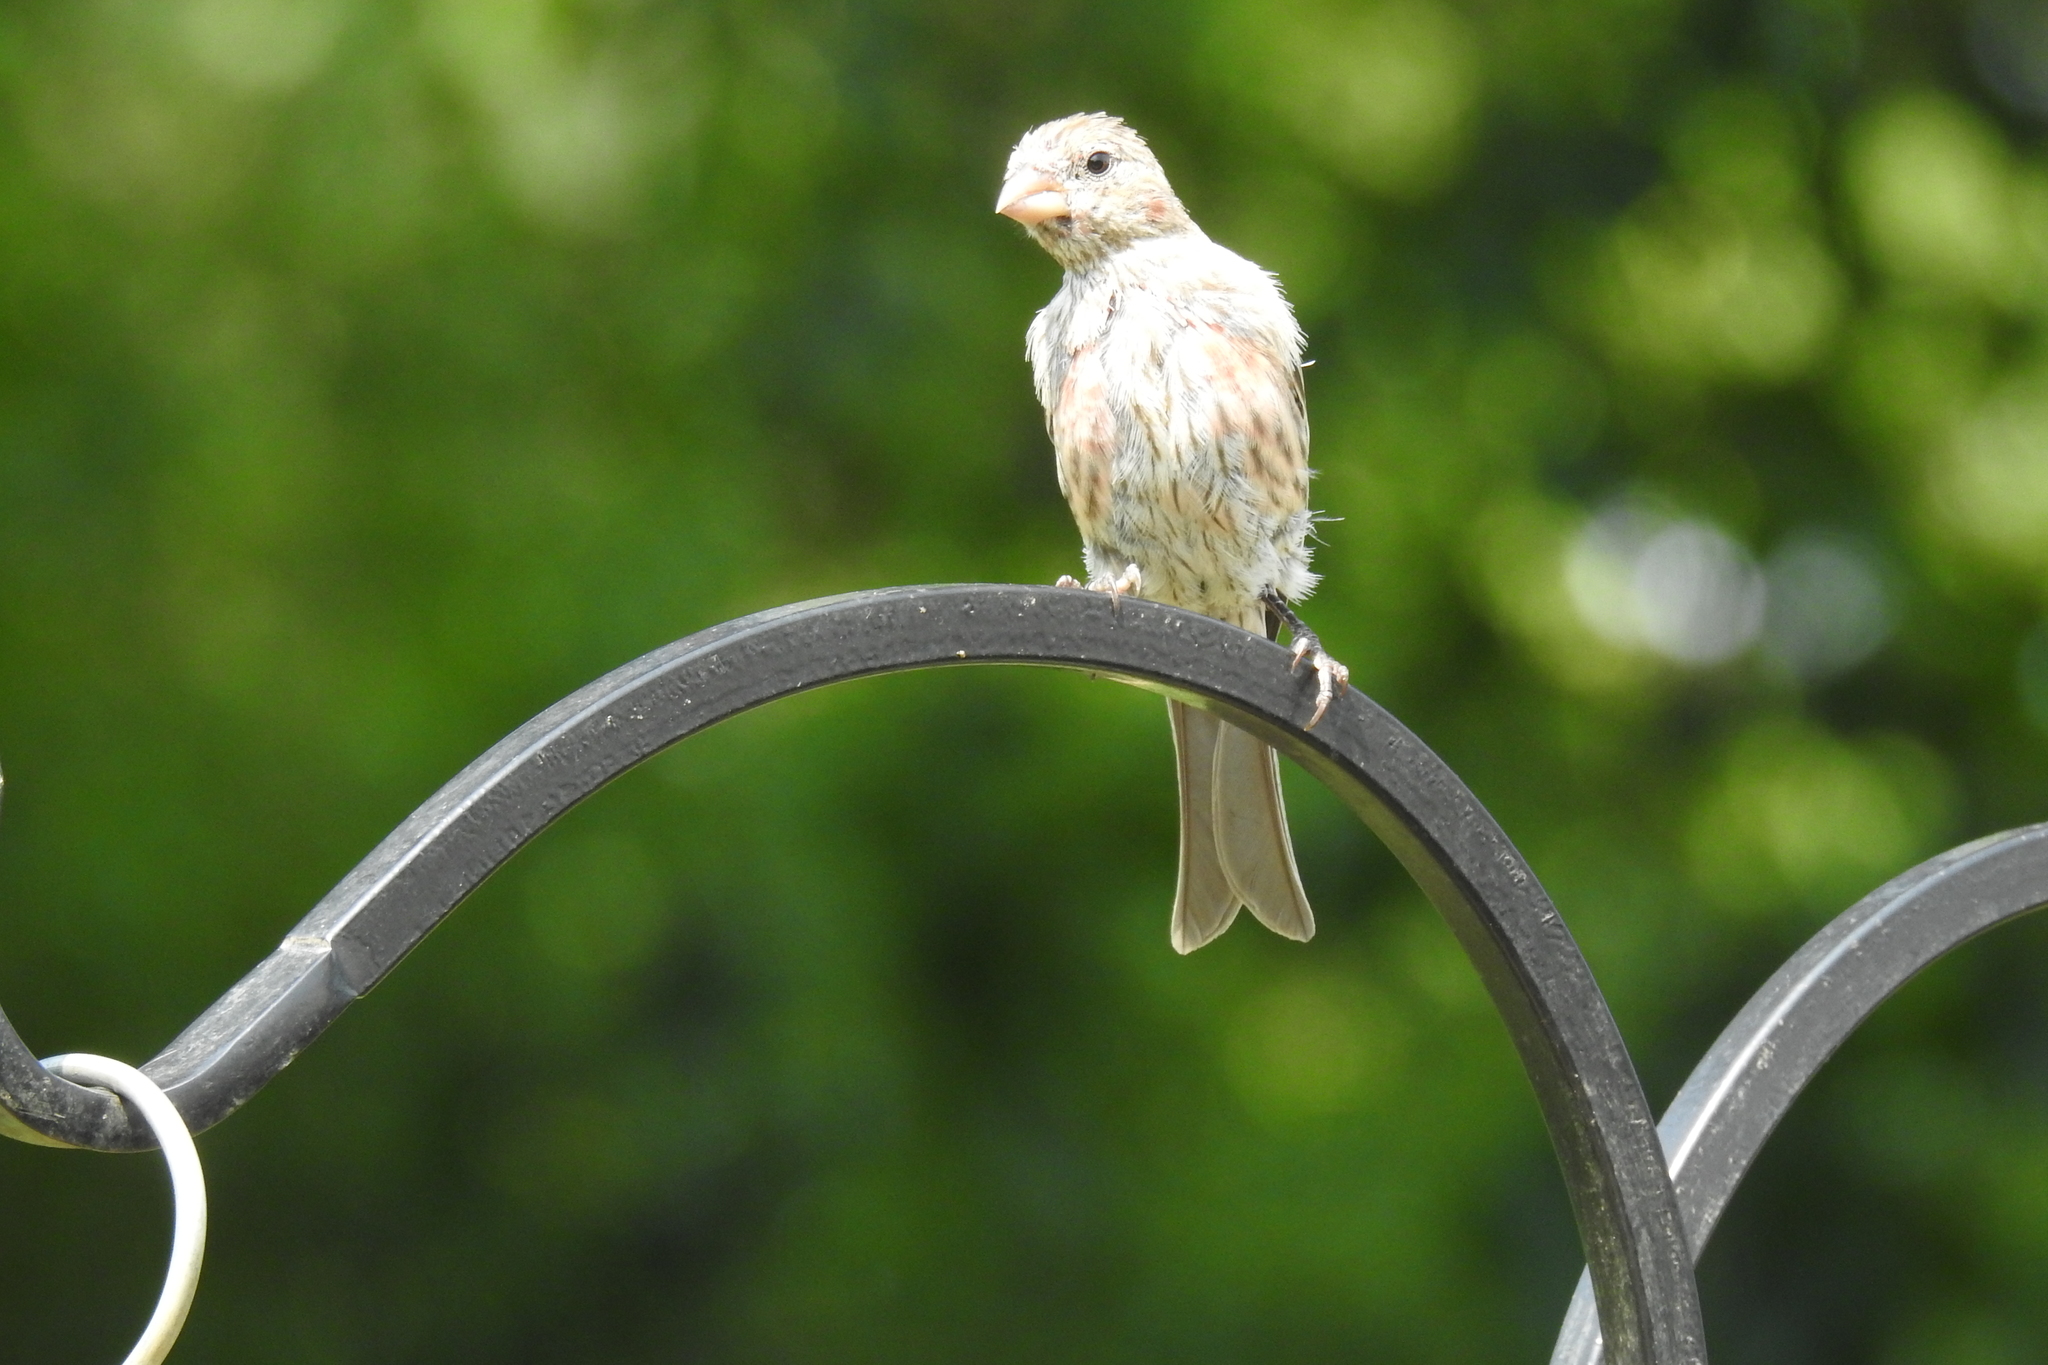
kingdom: Animalia
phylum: Chordata
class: Aves
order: Passeriformes
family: Fringillidae
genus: Haemorhous
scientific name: Haemorhous mexicanus
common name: House finch
